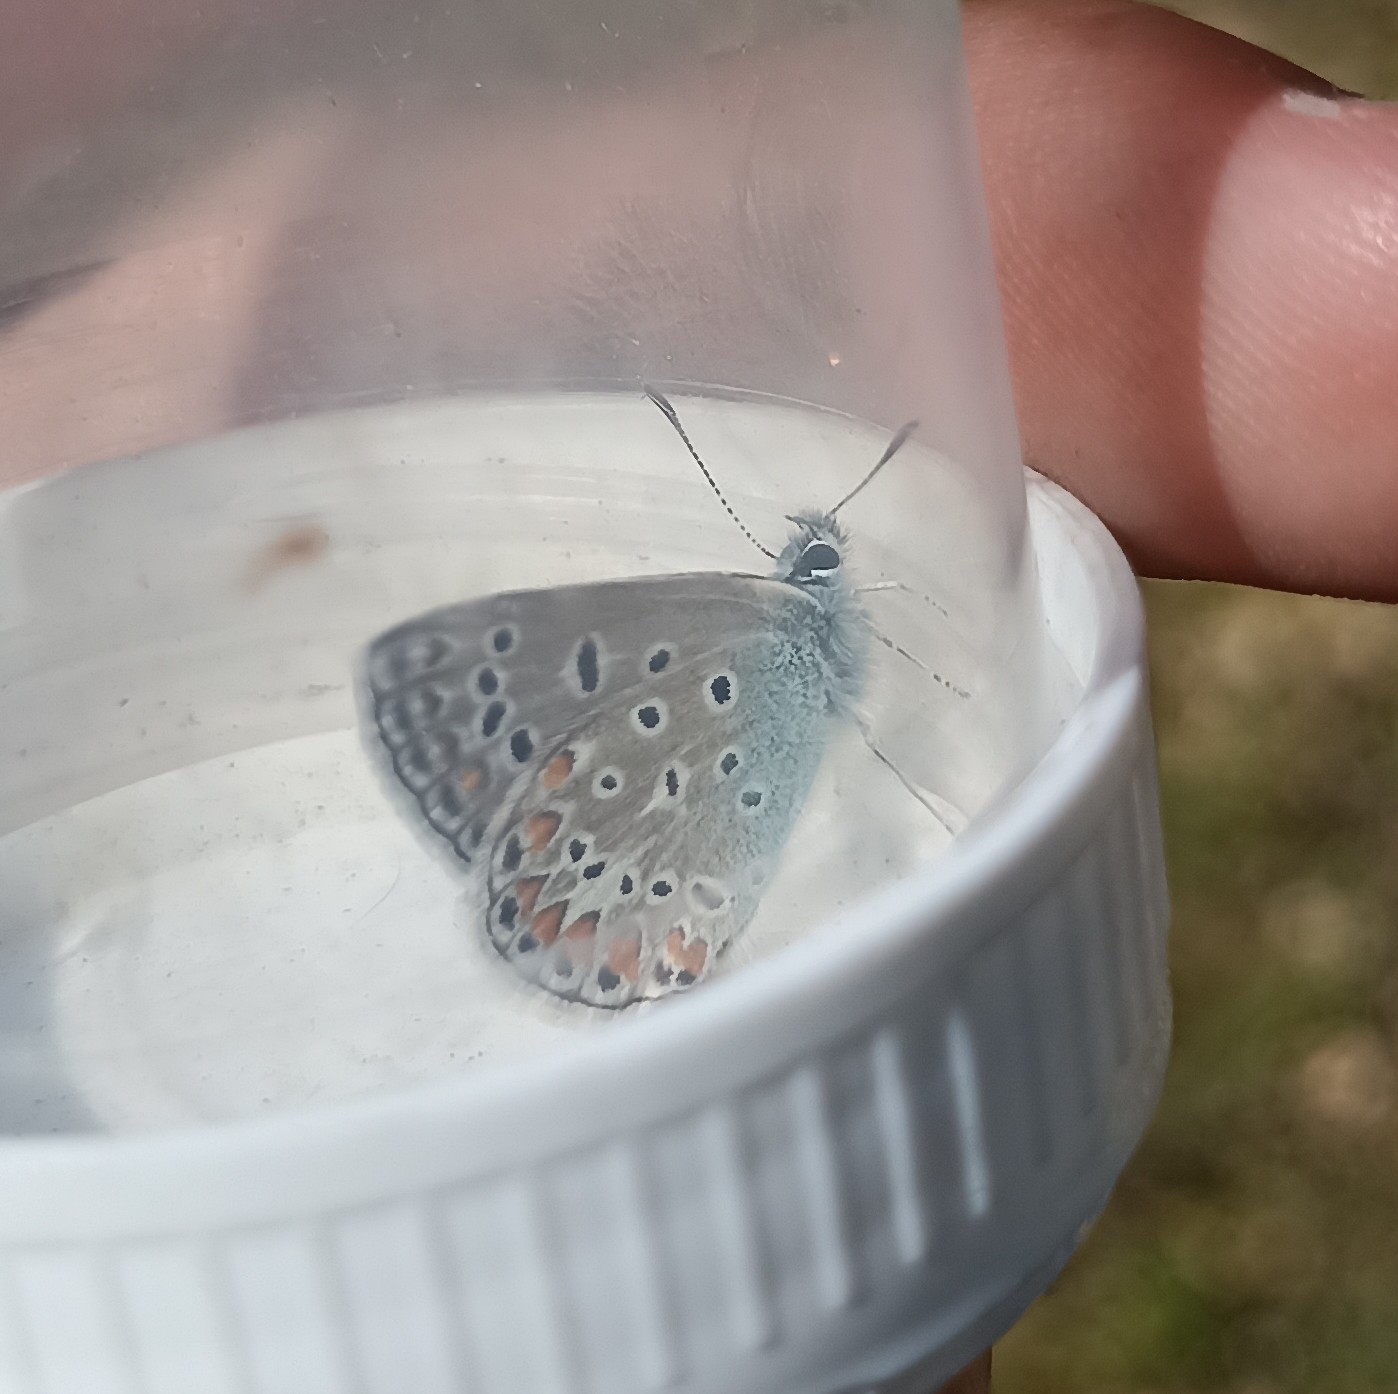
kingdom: Animalia
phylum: Arthropoda
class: Insecta
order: Lepidoptera
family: Lycaenidae
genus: Polyommatus
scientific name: Polyommatus icarus
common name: Common blue
